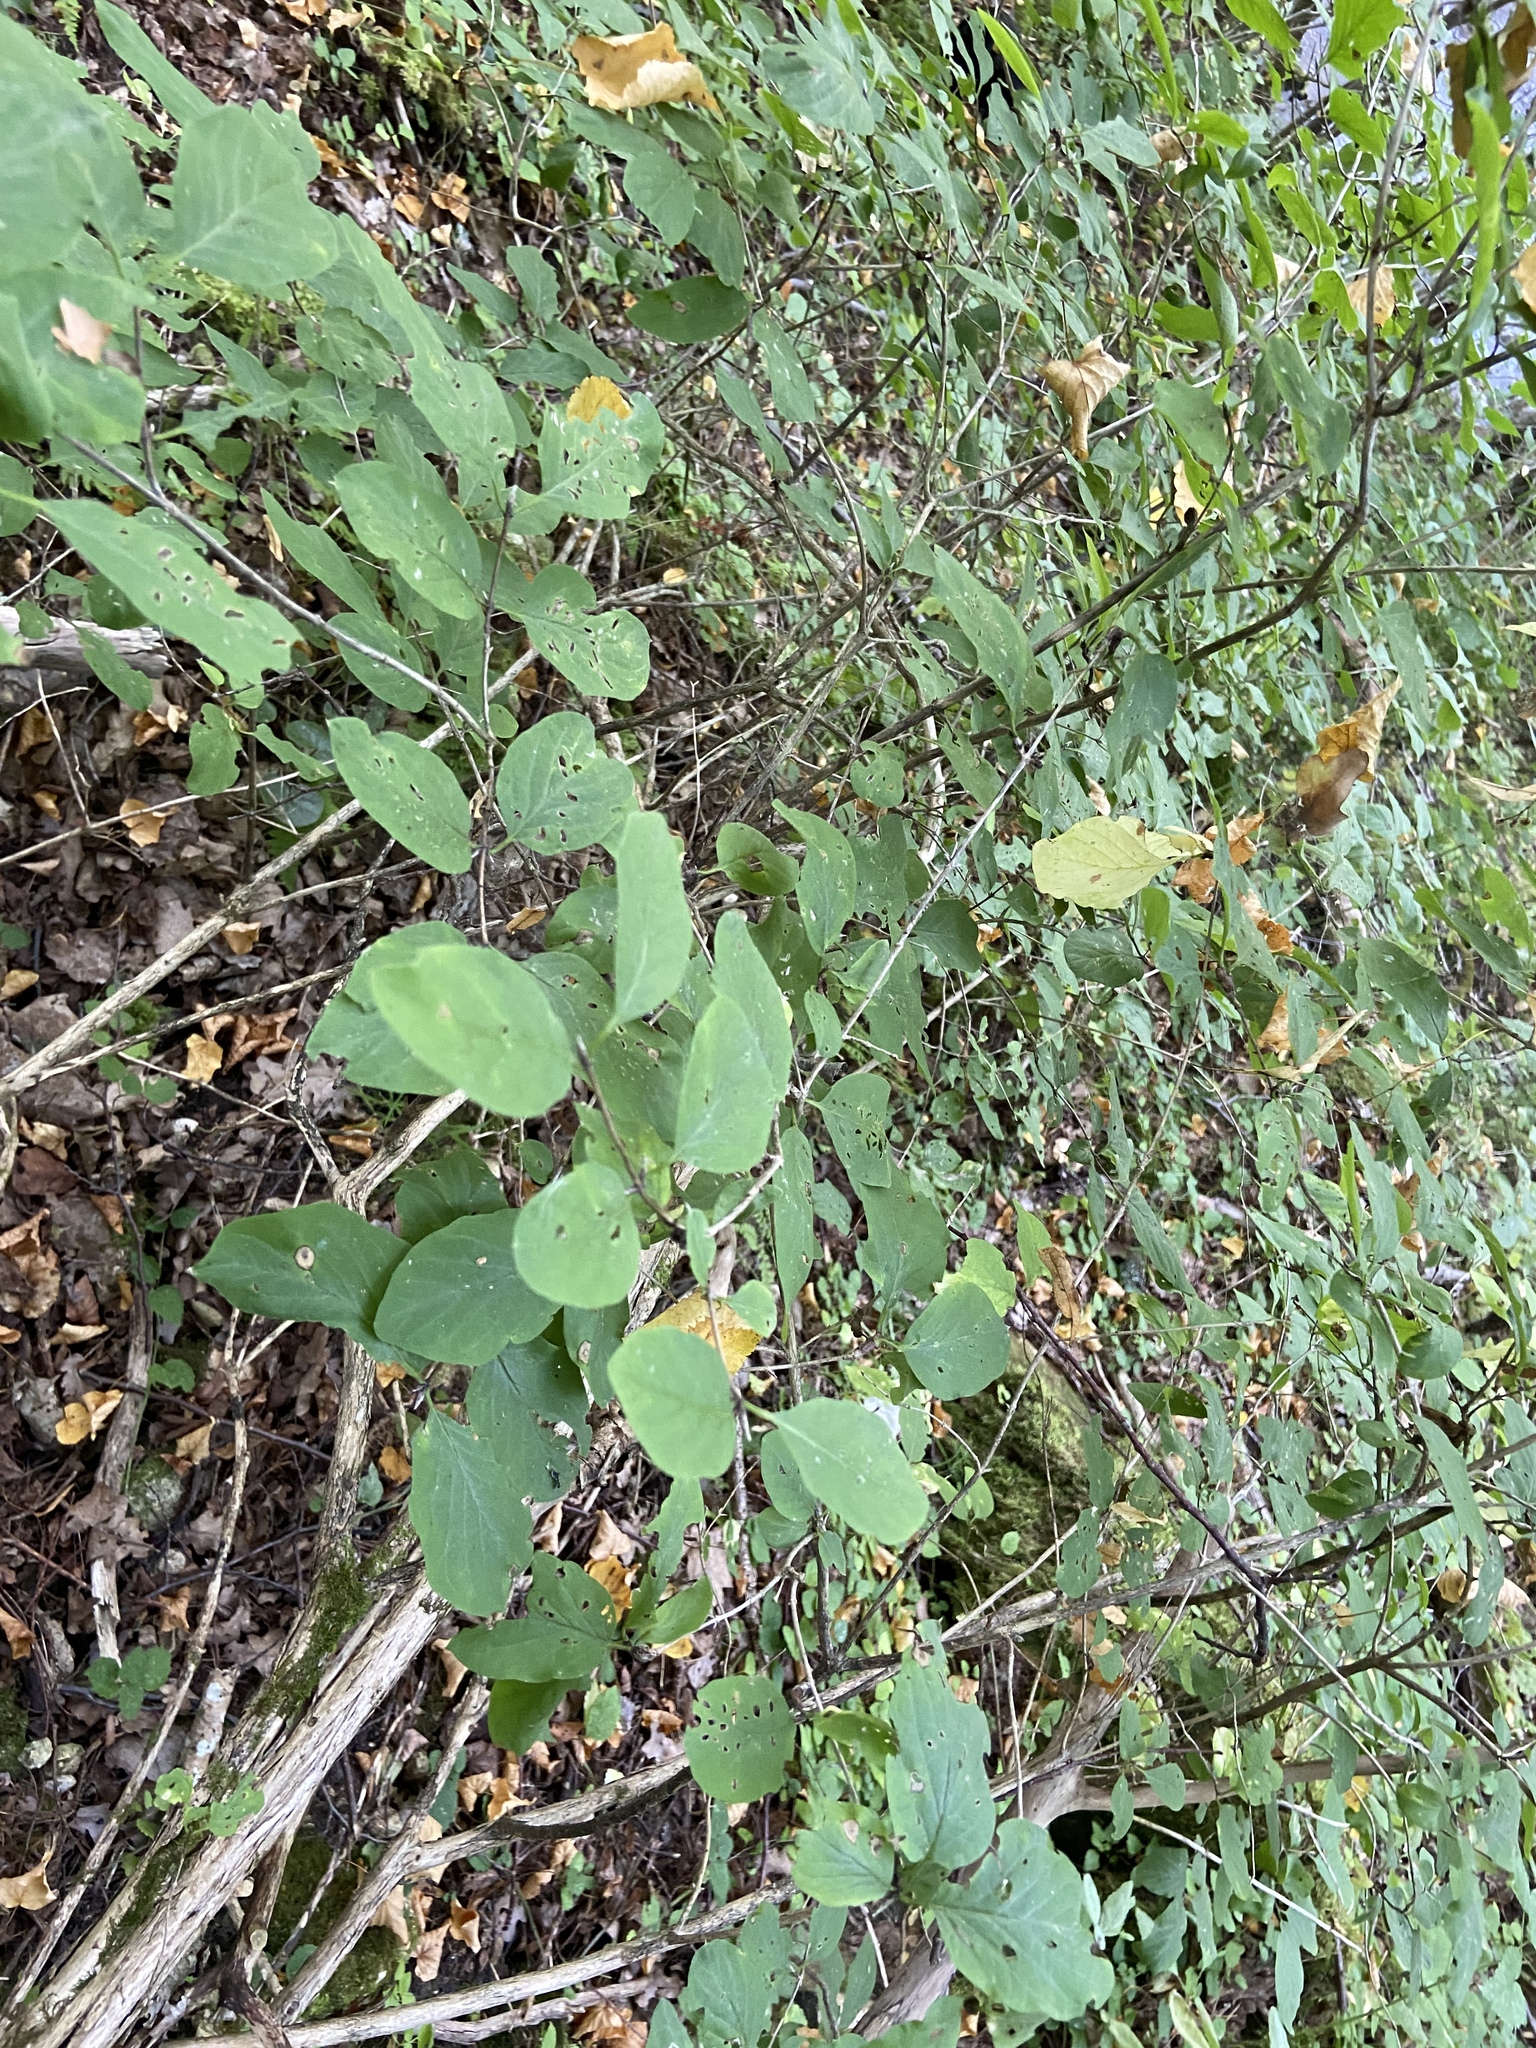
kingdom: Plantae
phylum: Tracheophyta
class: Magnoliopsida
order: Dipsacales
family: Caprifoliaceae
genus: Lonicera
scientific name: Lonicera xylosteum
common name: Fly honeysuckle
